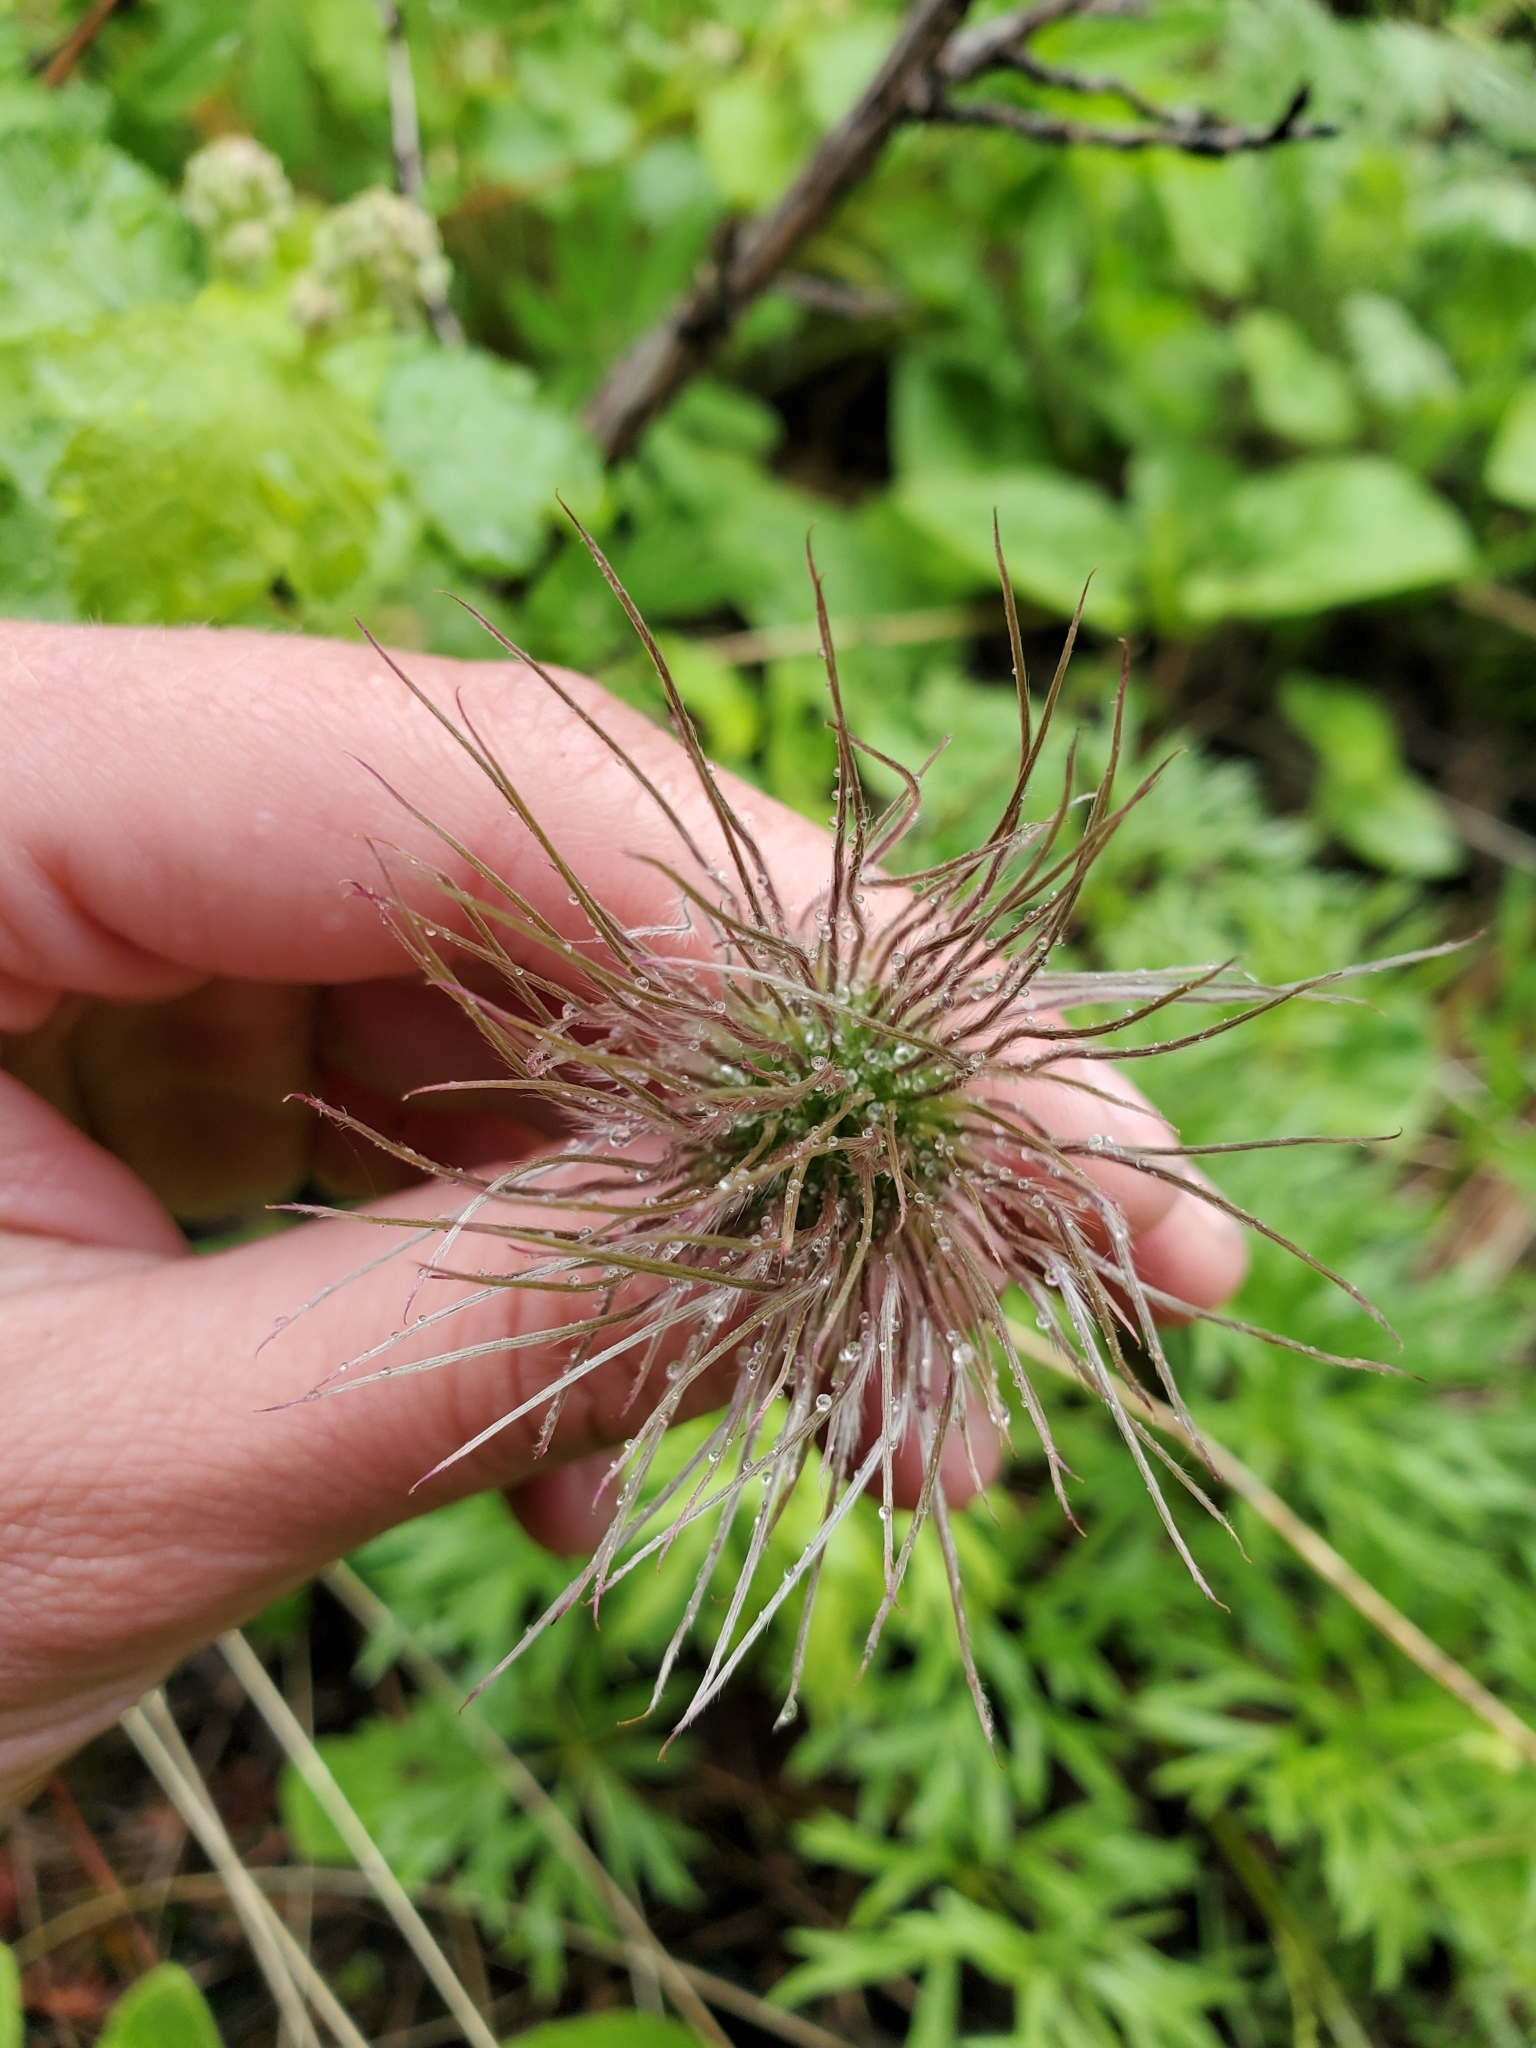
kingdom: Plantae
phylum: Tracheophyta
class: Magnoliopsida
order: Ranunculales
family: Ranunculaceae
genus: Pulsatilla
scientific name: Pulsatilla nuttalliana
